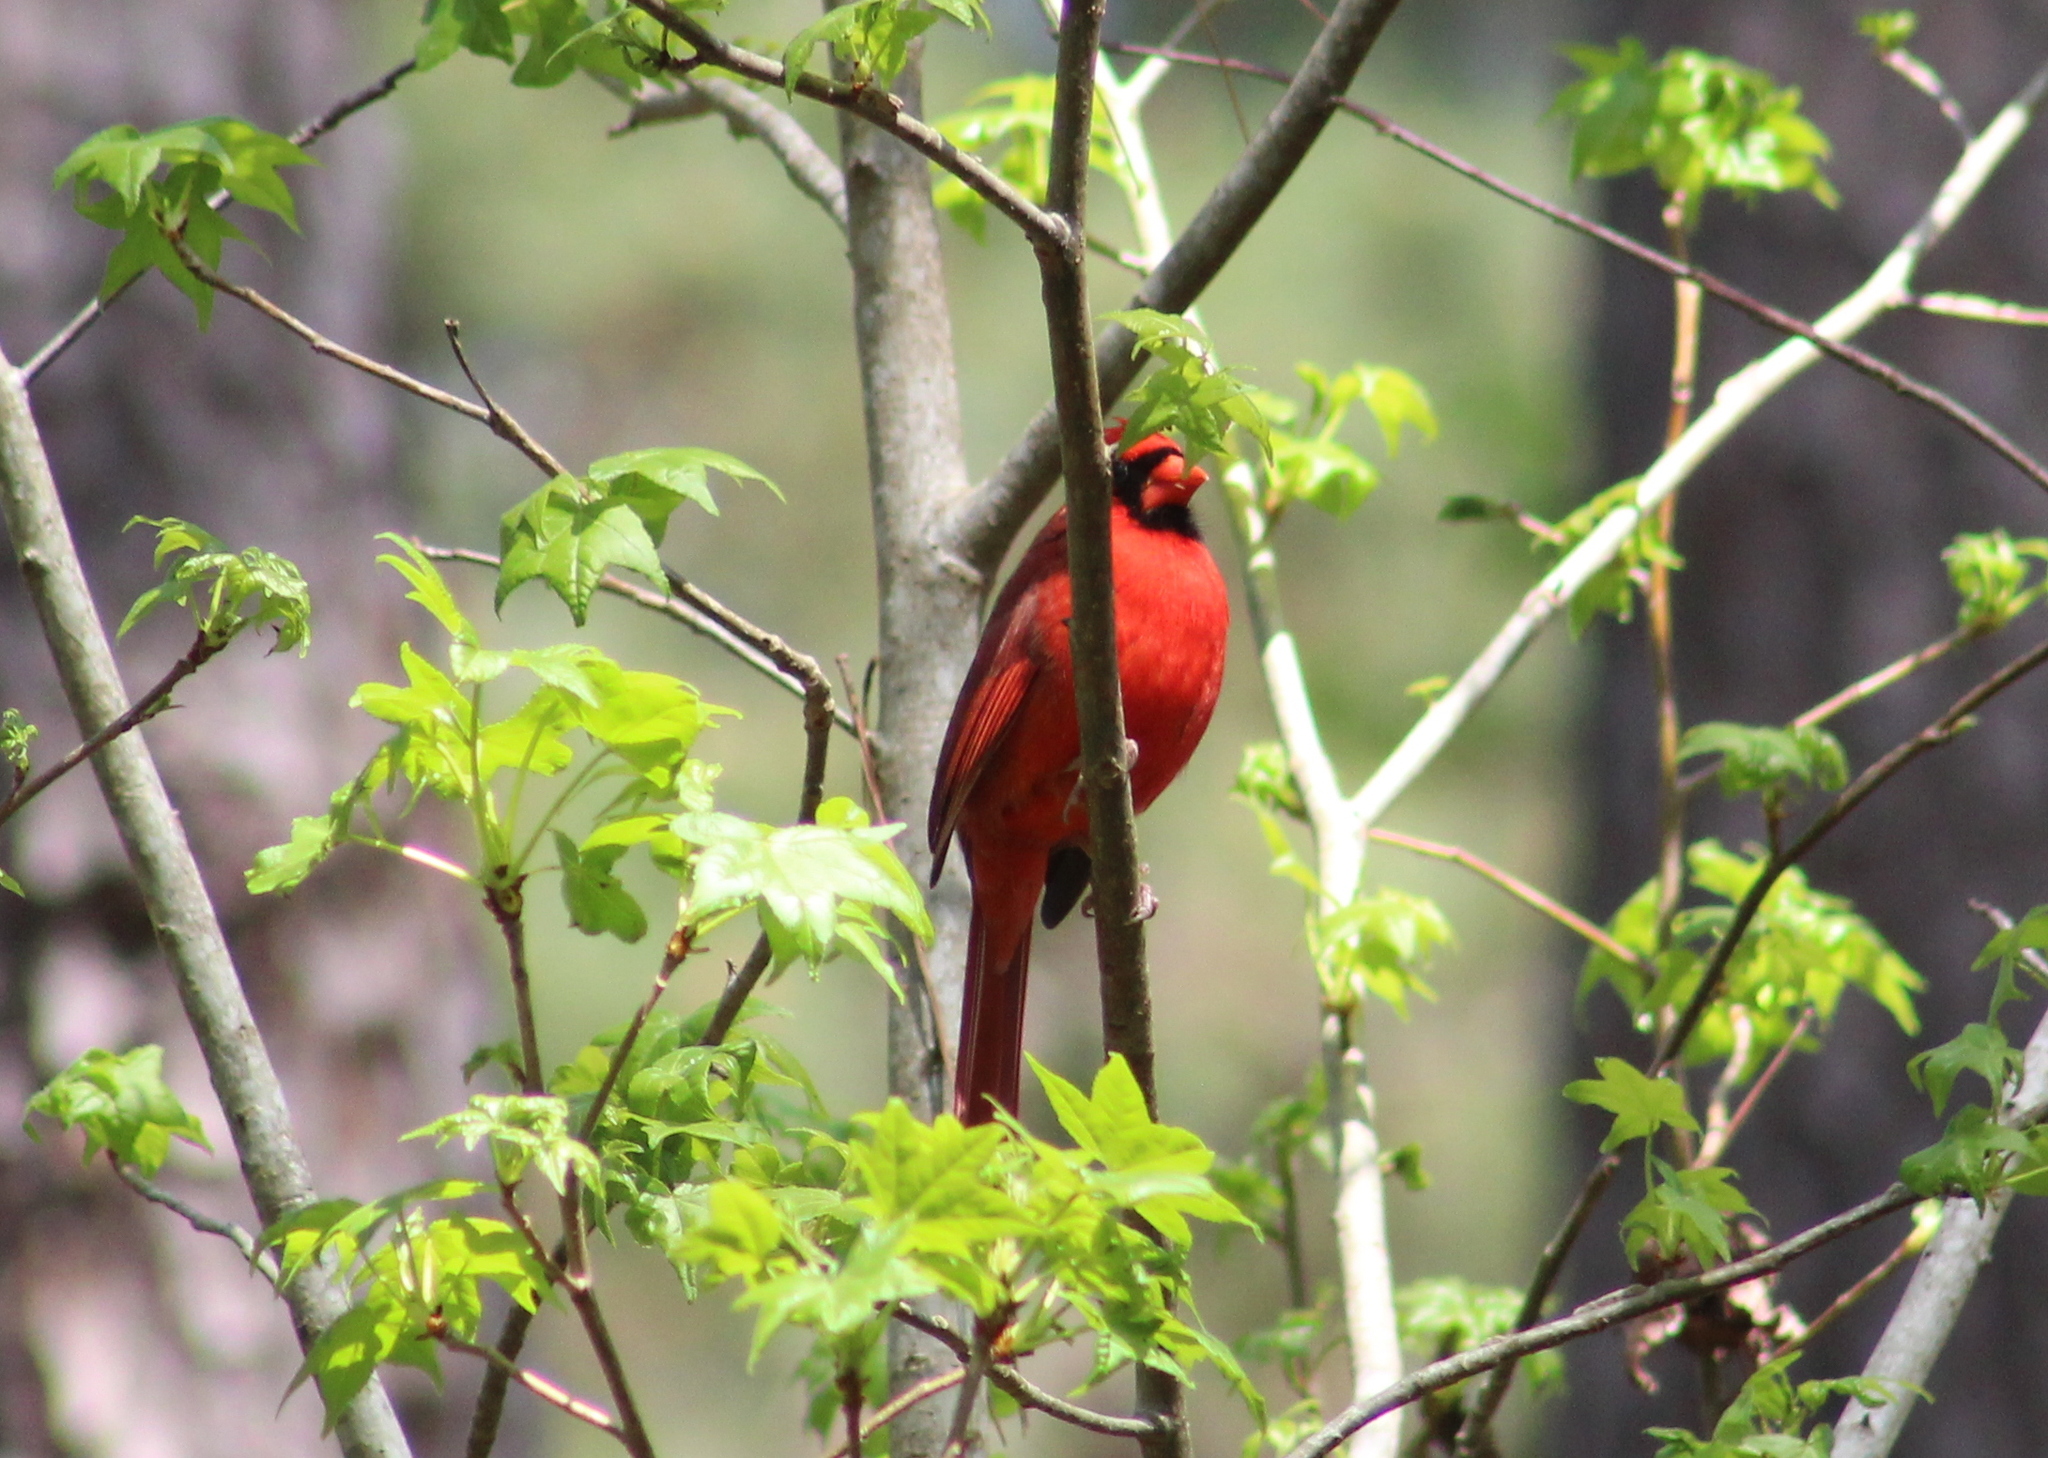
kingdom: Animalia
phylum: Chordata
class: Aves
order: Passeriformes
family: Cardinalidae
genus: Cardinalis
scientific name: Cardinalis cardinalis
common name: Northern cardinal
